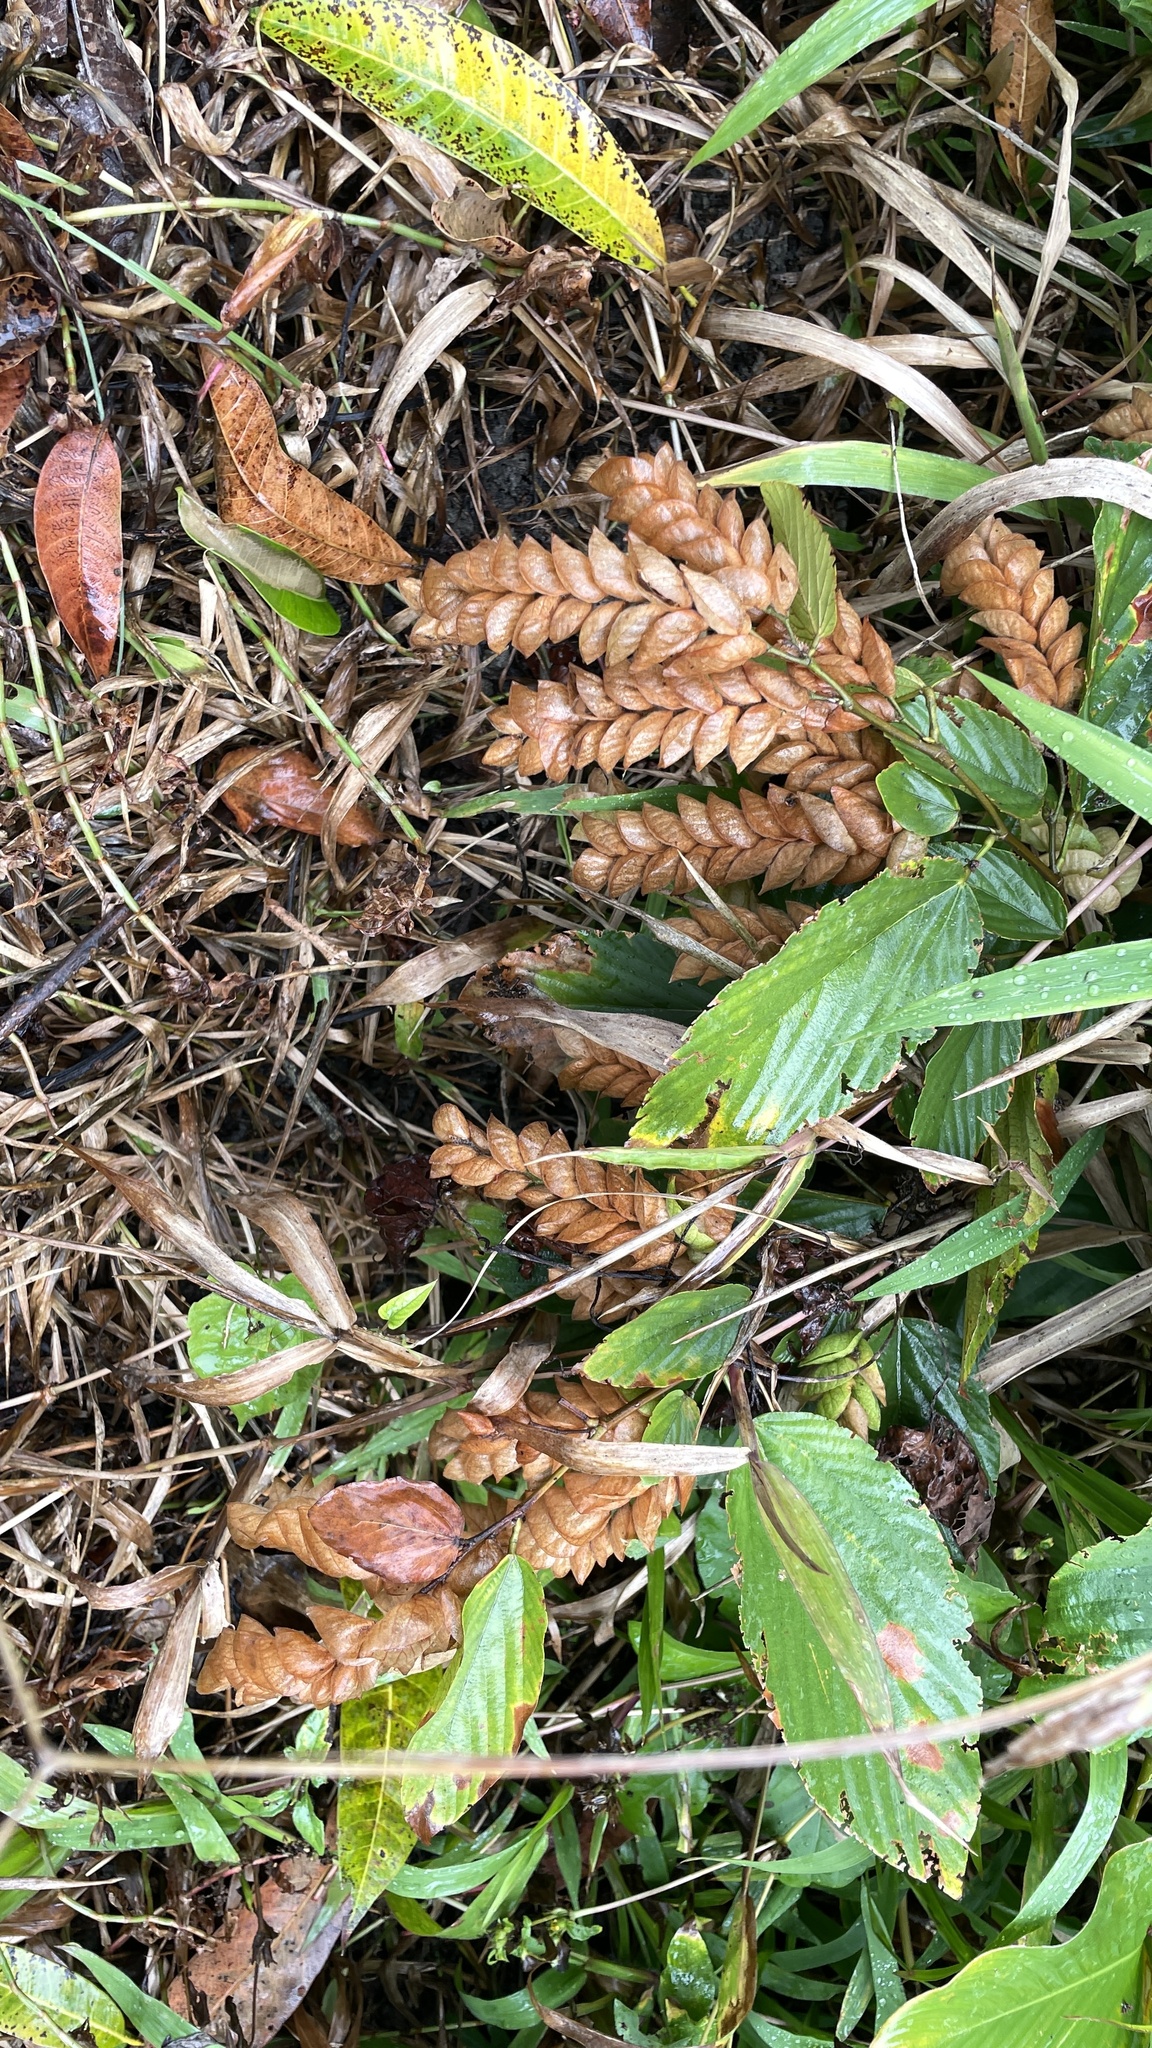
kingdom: Plantae
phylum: Tracheophyta
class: Magnoliopsida
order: Fabales
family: Fabaceae
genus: Flemingia
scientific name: Flemingia strobilifera
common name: Wild hops
